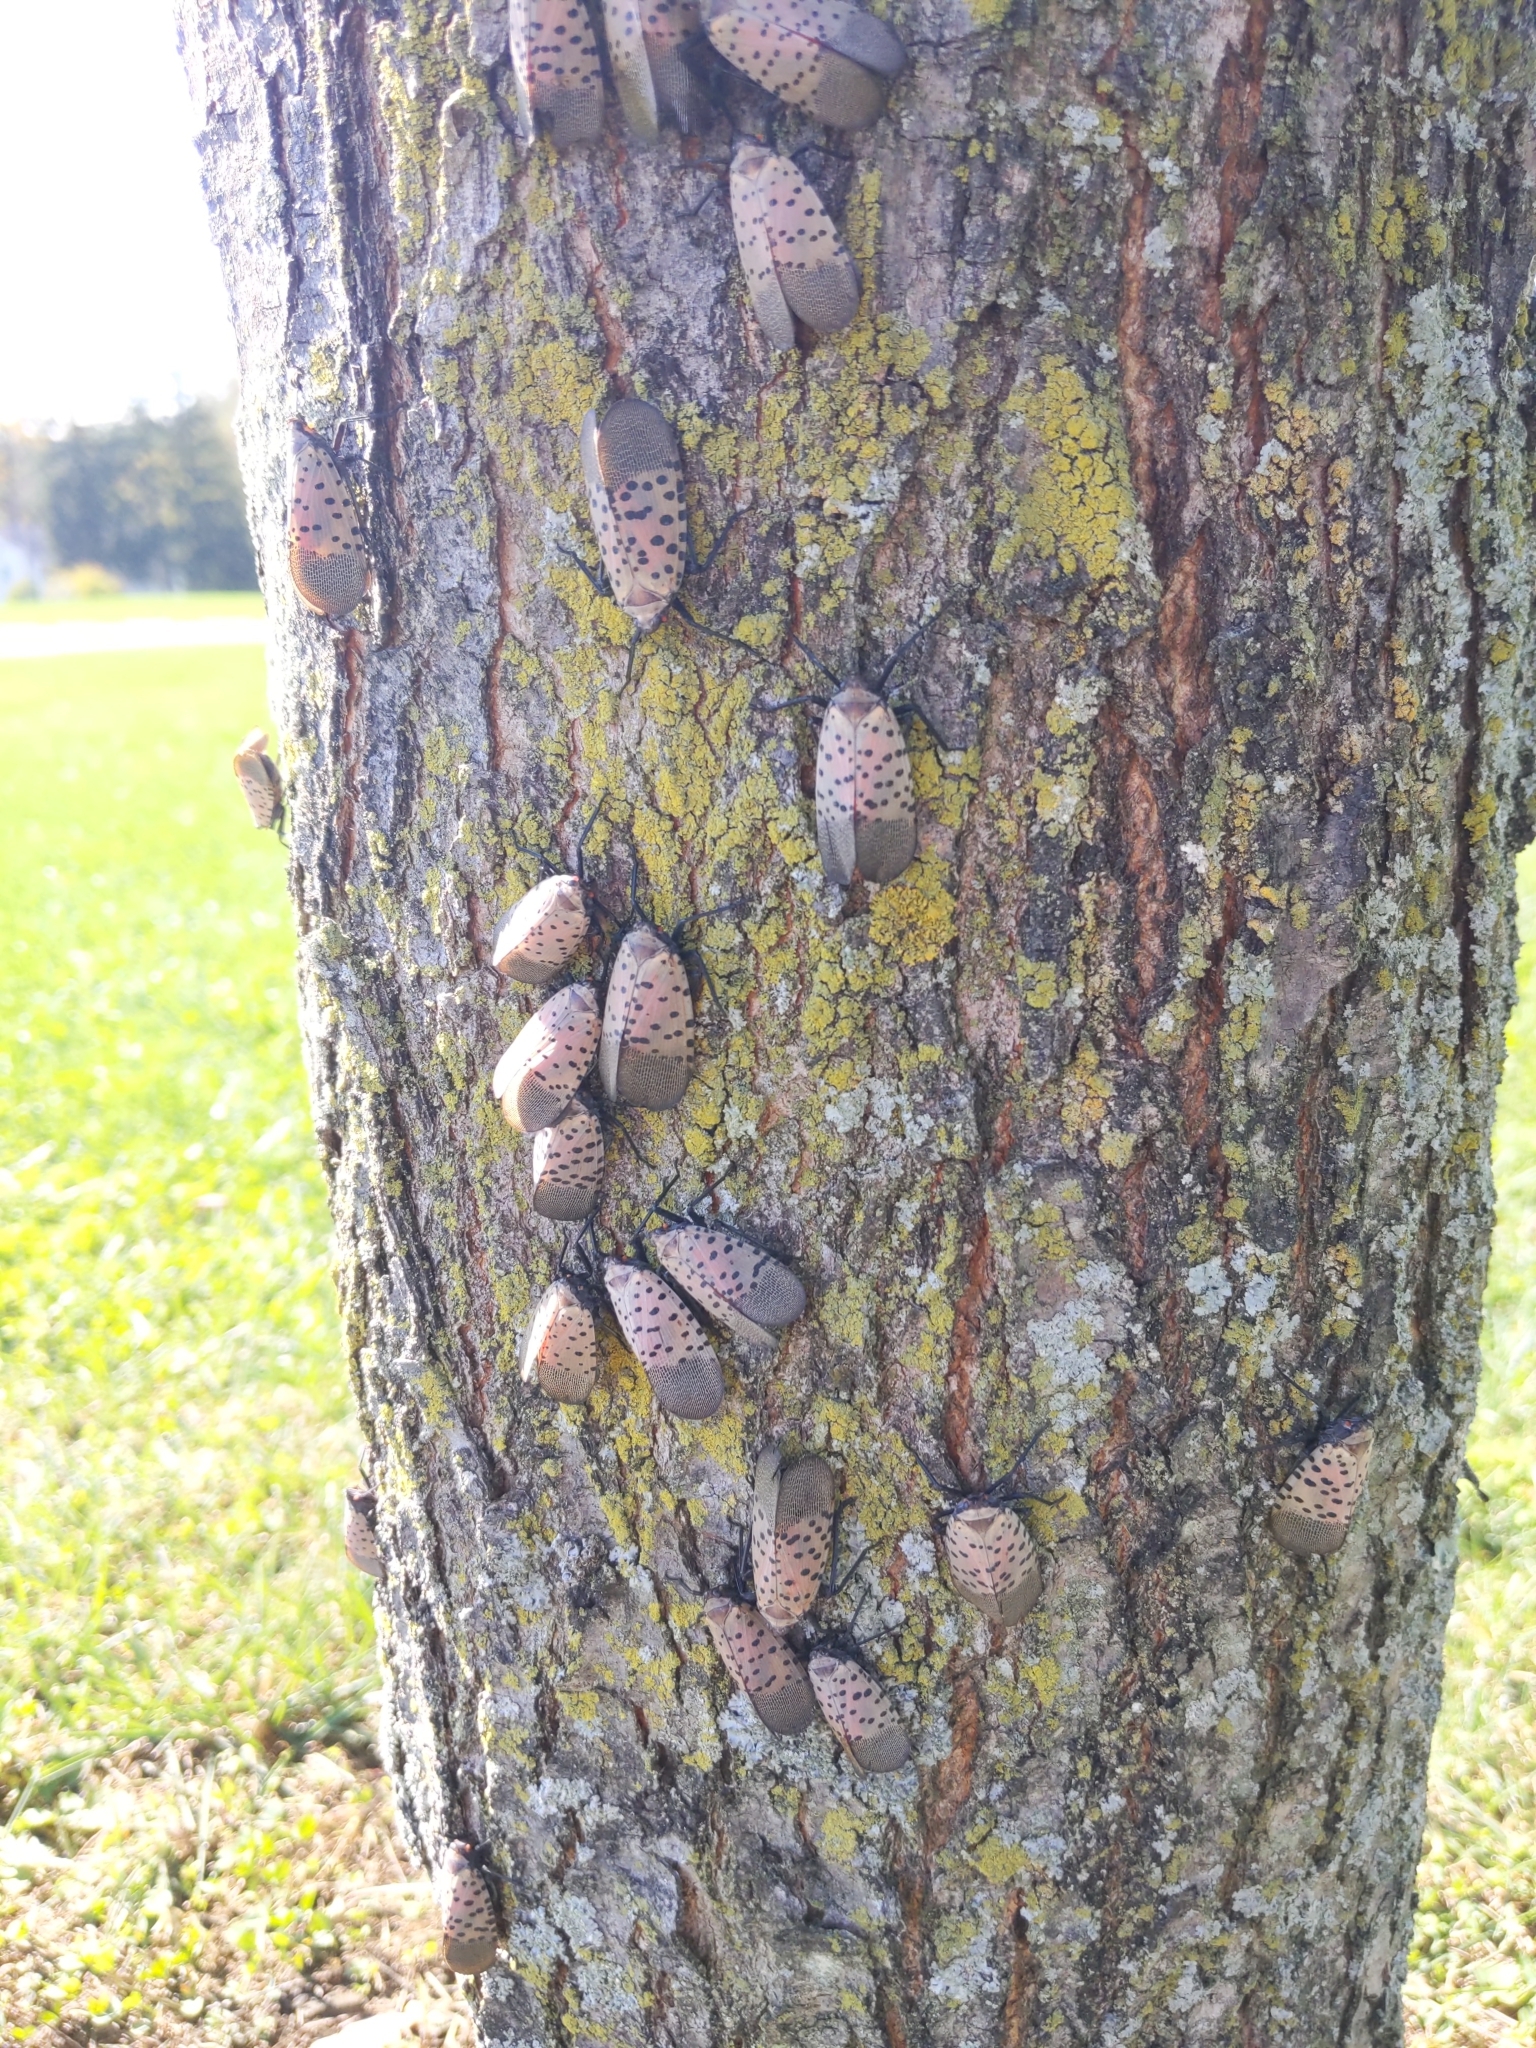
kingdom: Animalia
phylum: Arthropoda
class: Insecta
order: Hemiptera
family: Fulgoridae
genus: Lycorma
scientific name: Lycorma delicatula
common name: Spotted lanternfly
